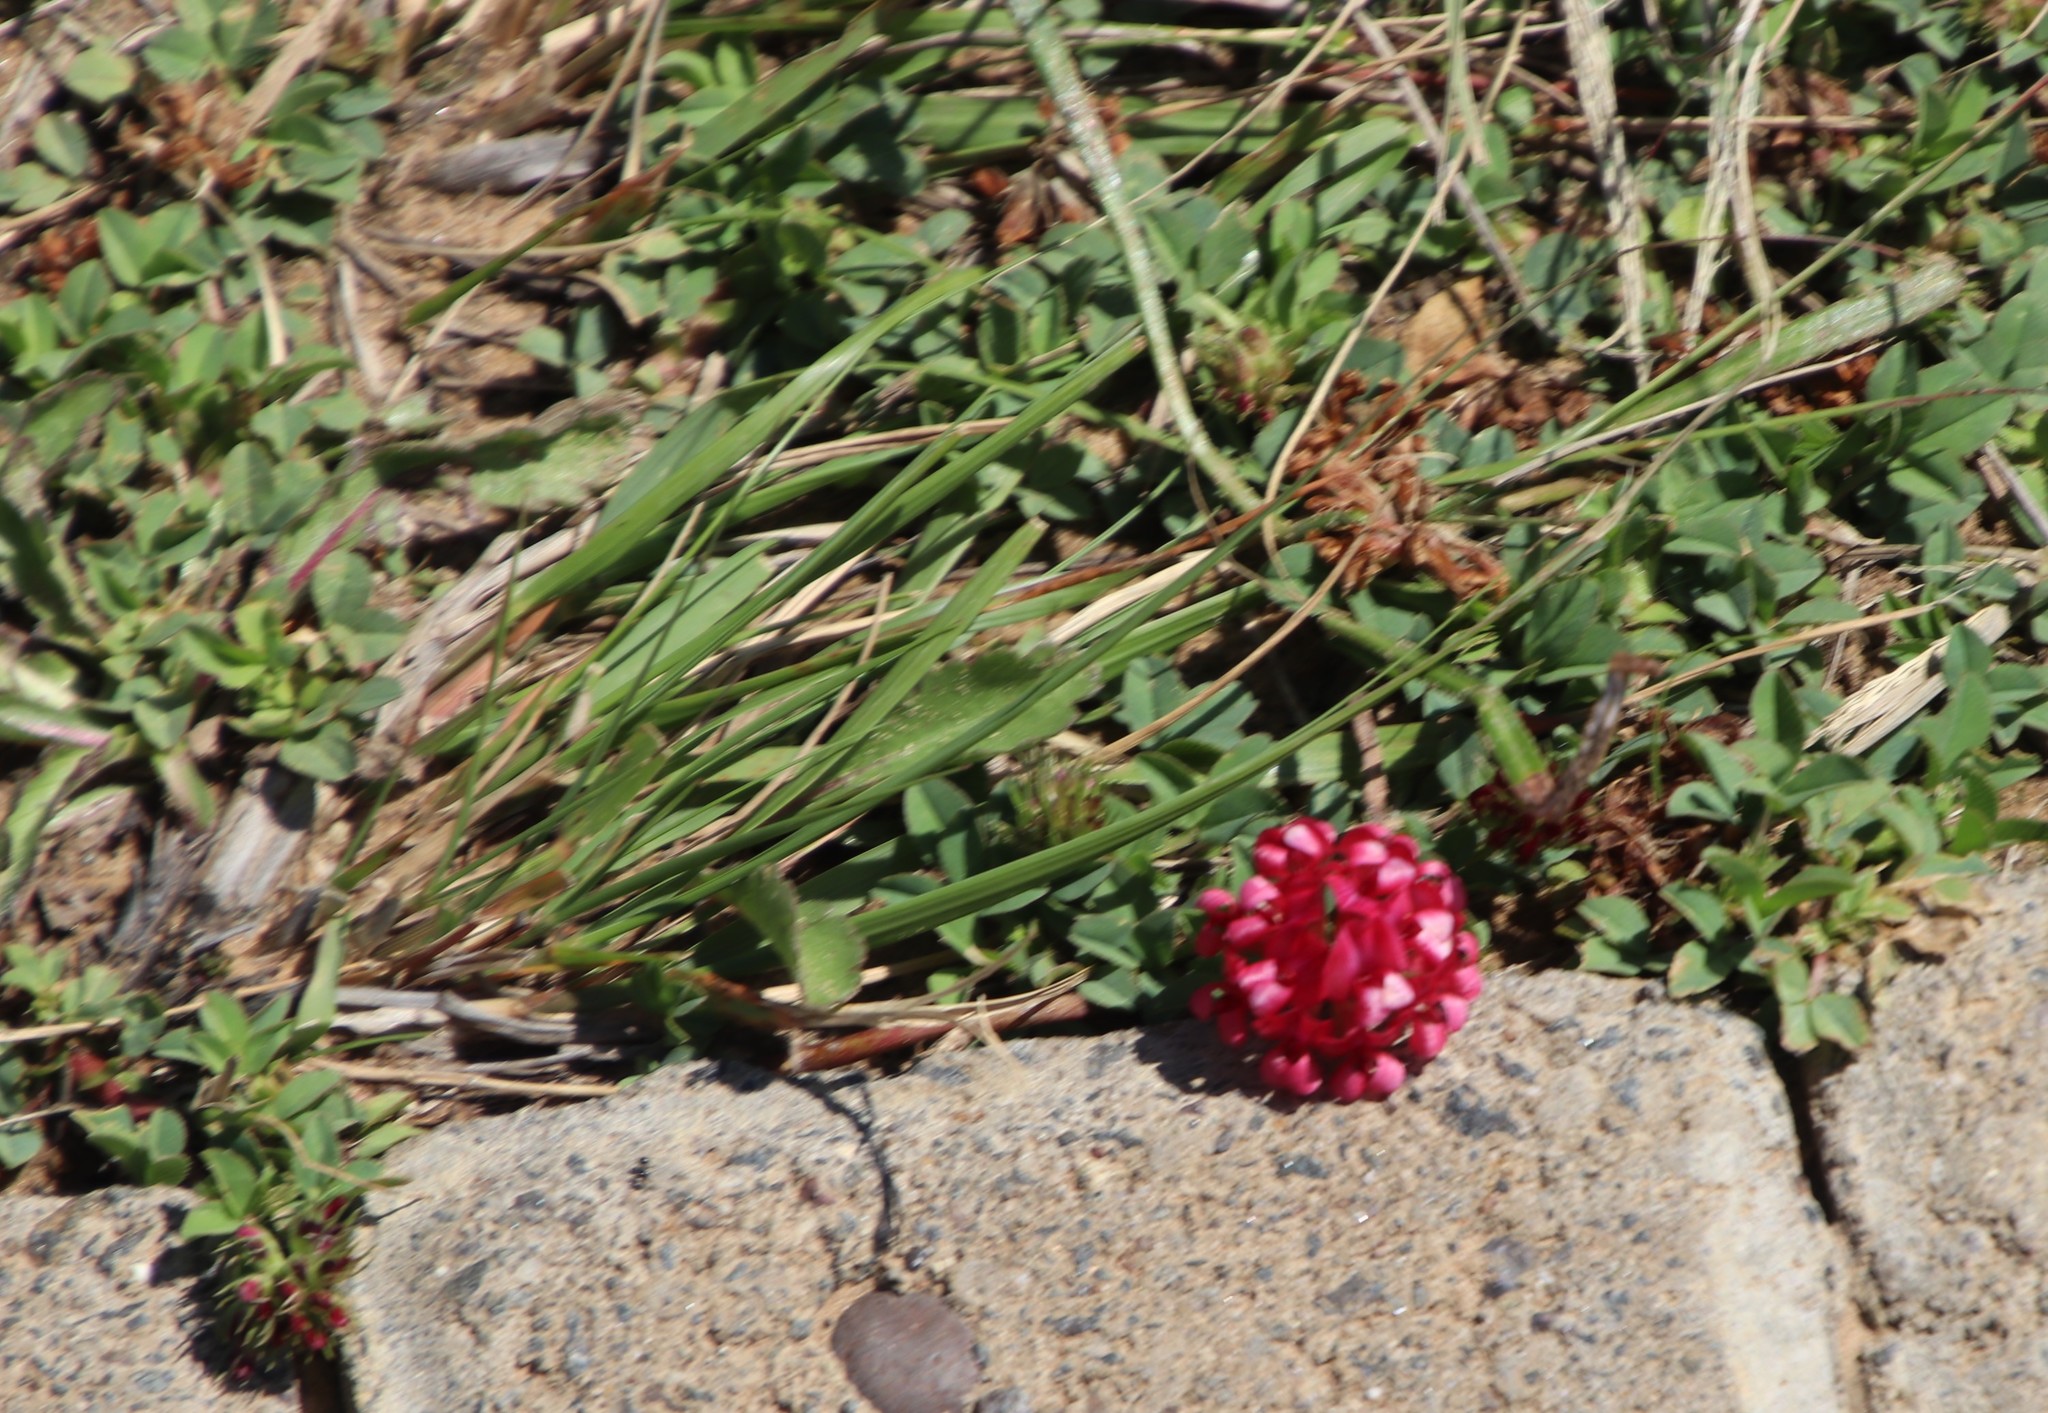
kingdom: Plantae
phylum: Tracheophyta
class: Magnoliopsida
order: Fabales
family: Fabaceae
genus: Trifolium
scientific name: Trifolium burchellianum
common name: Burchell's clover
